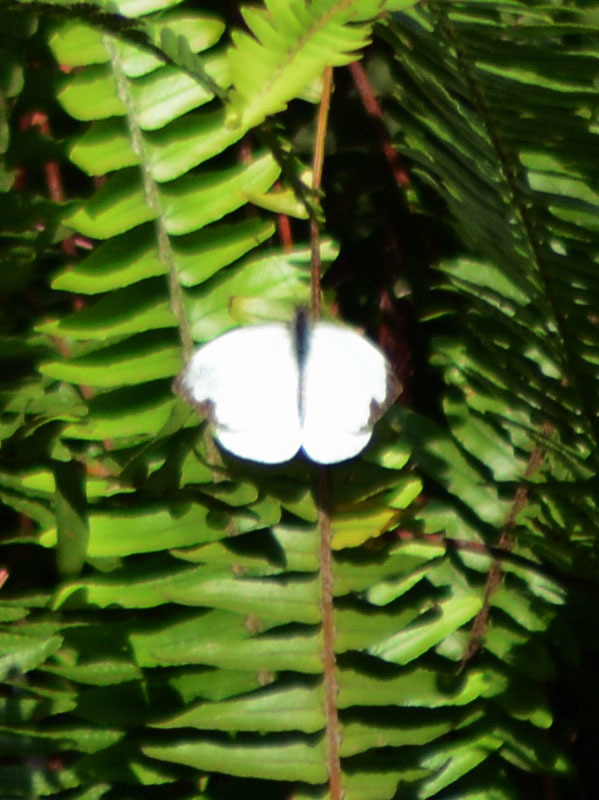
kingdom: Animalia
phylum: Arthropoda
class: Insecta
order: Lepidoptera
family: Pieridae
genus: Leptophobia
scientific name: Leptophobia aripa
